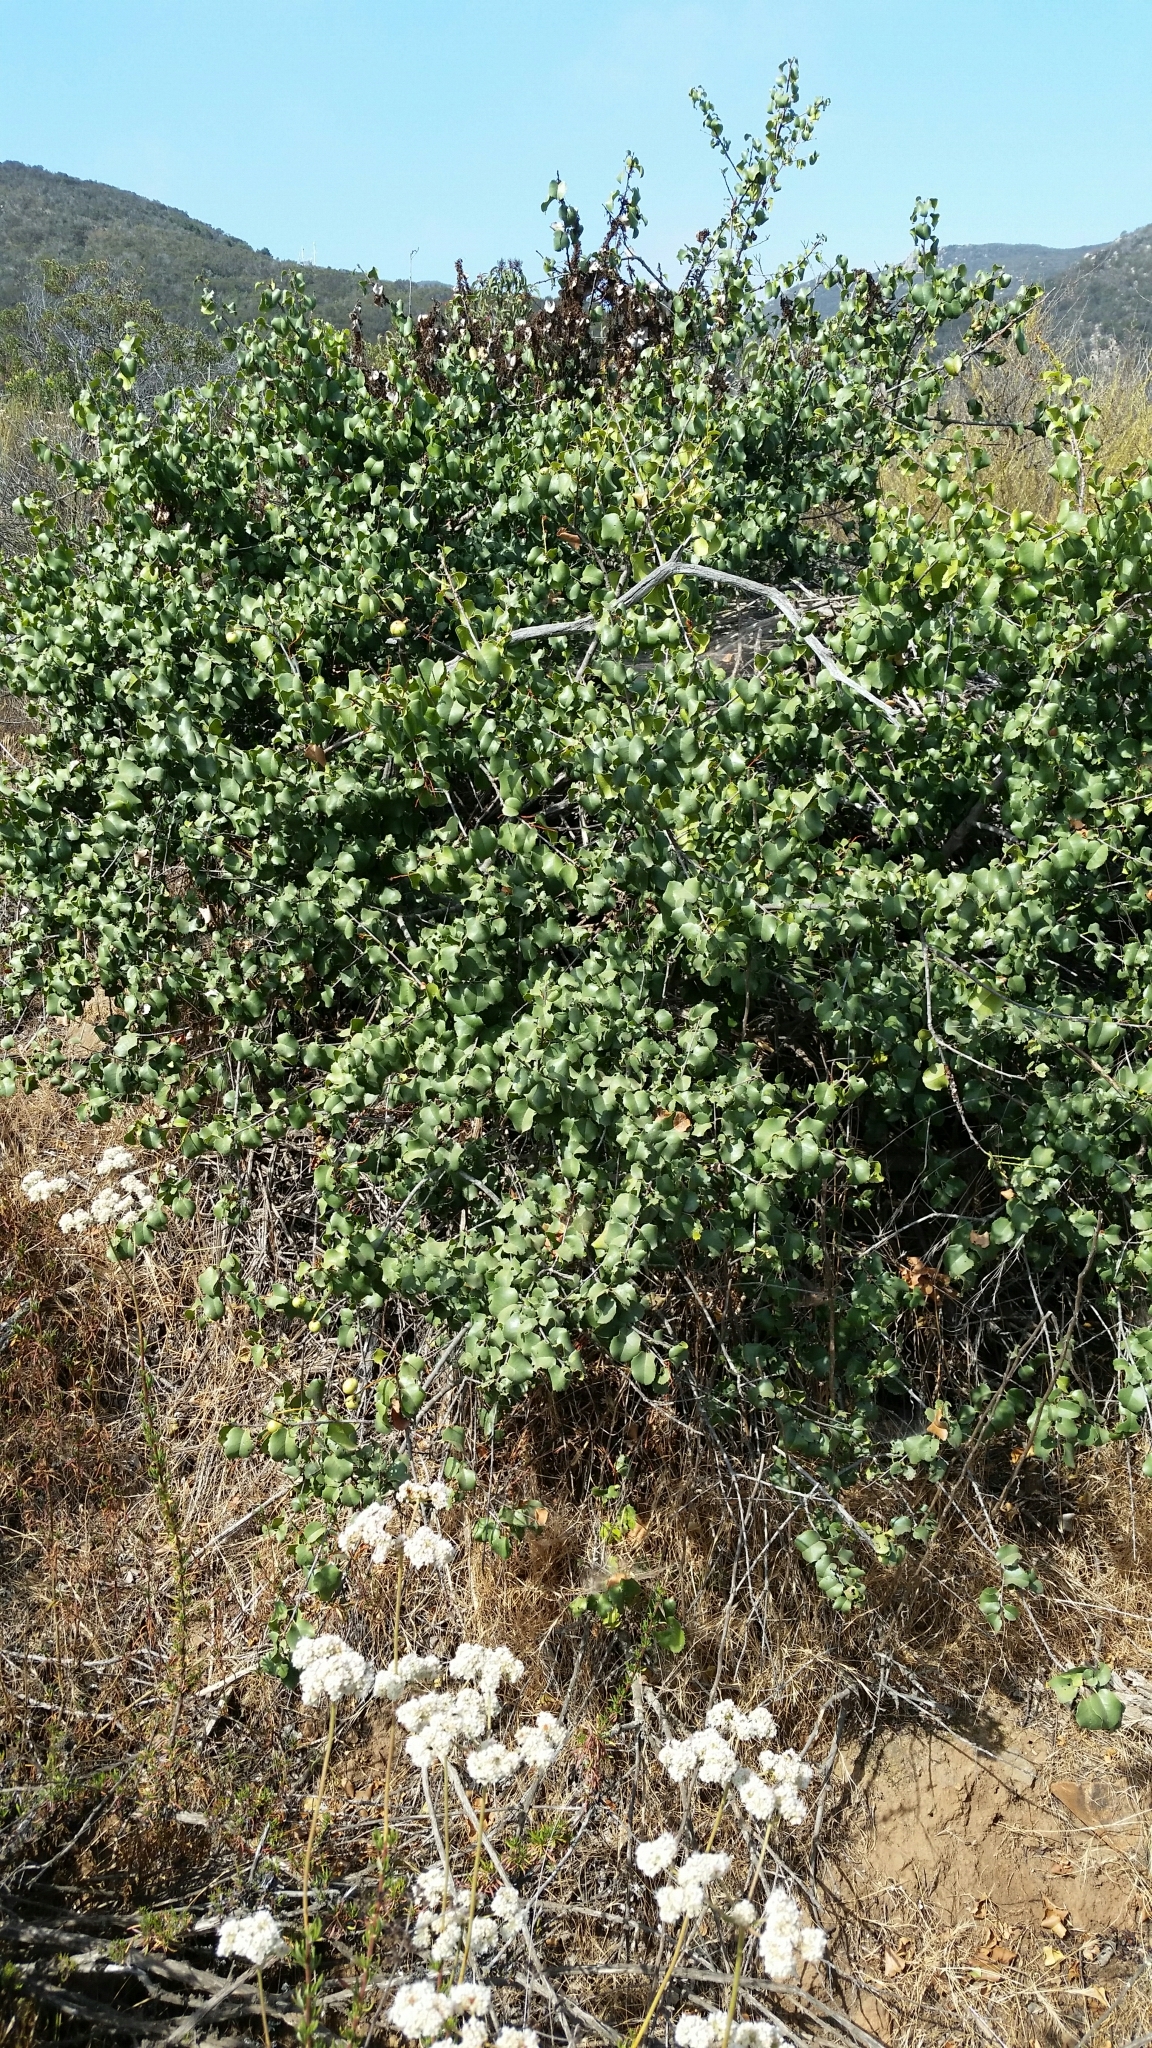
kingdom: Plantae
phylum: Tracheophyta
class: Magnoliopsida
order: Rosales
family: Rosaceae
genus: Prunus
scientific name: Prunus ilicifolia
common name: Hollyleaf cherry
